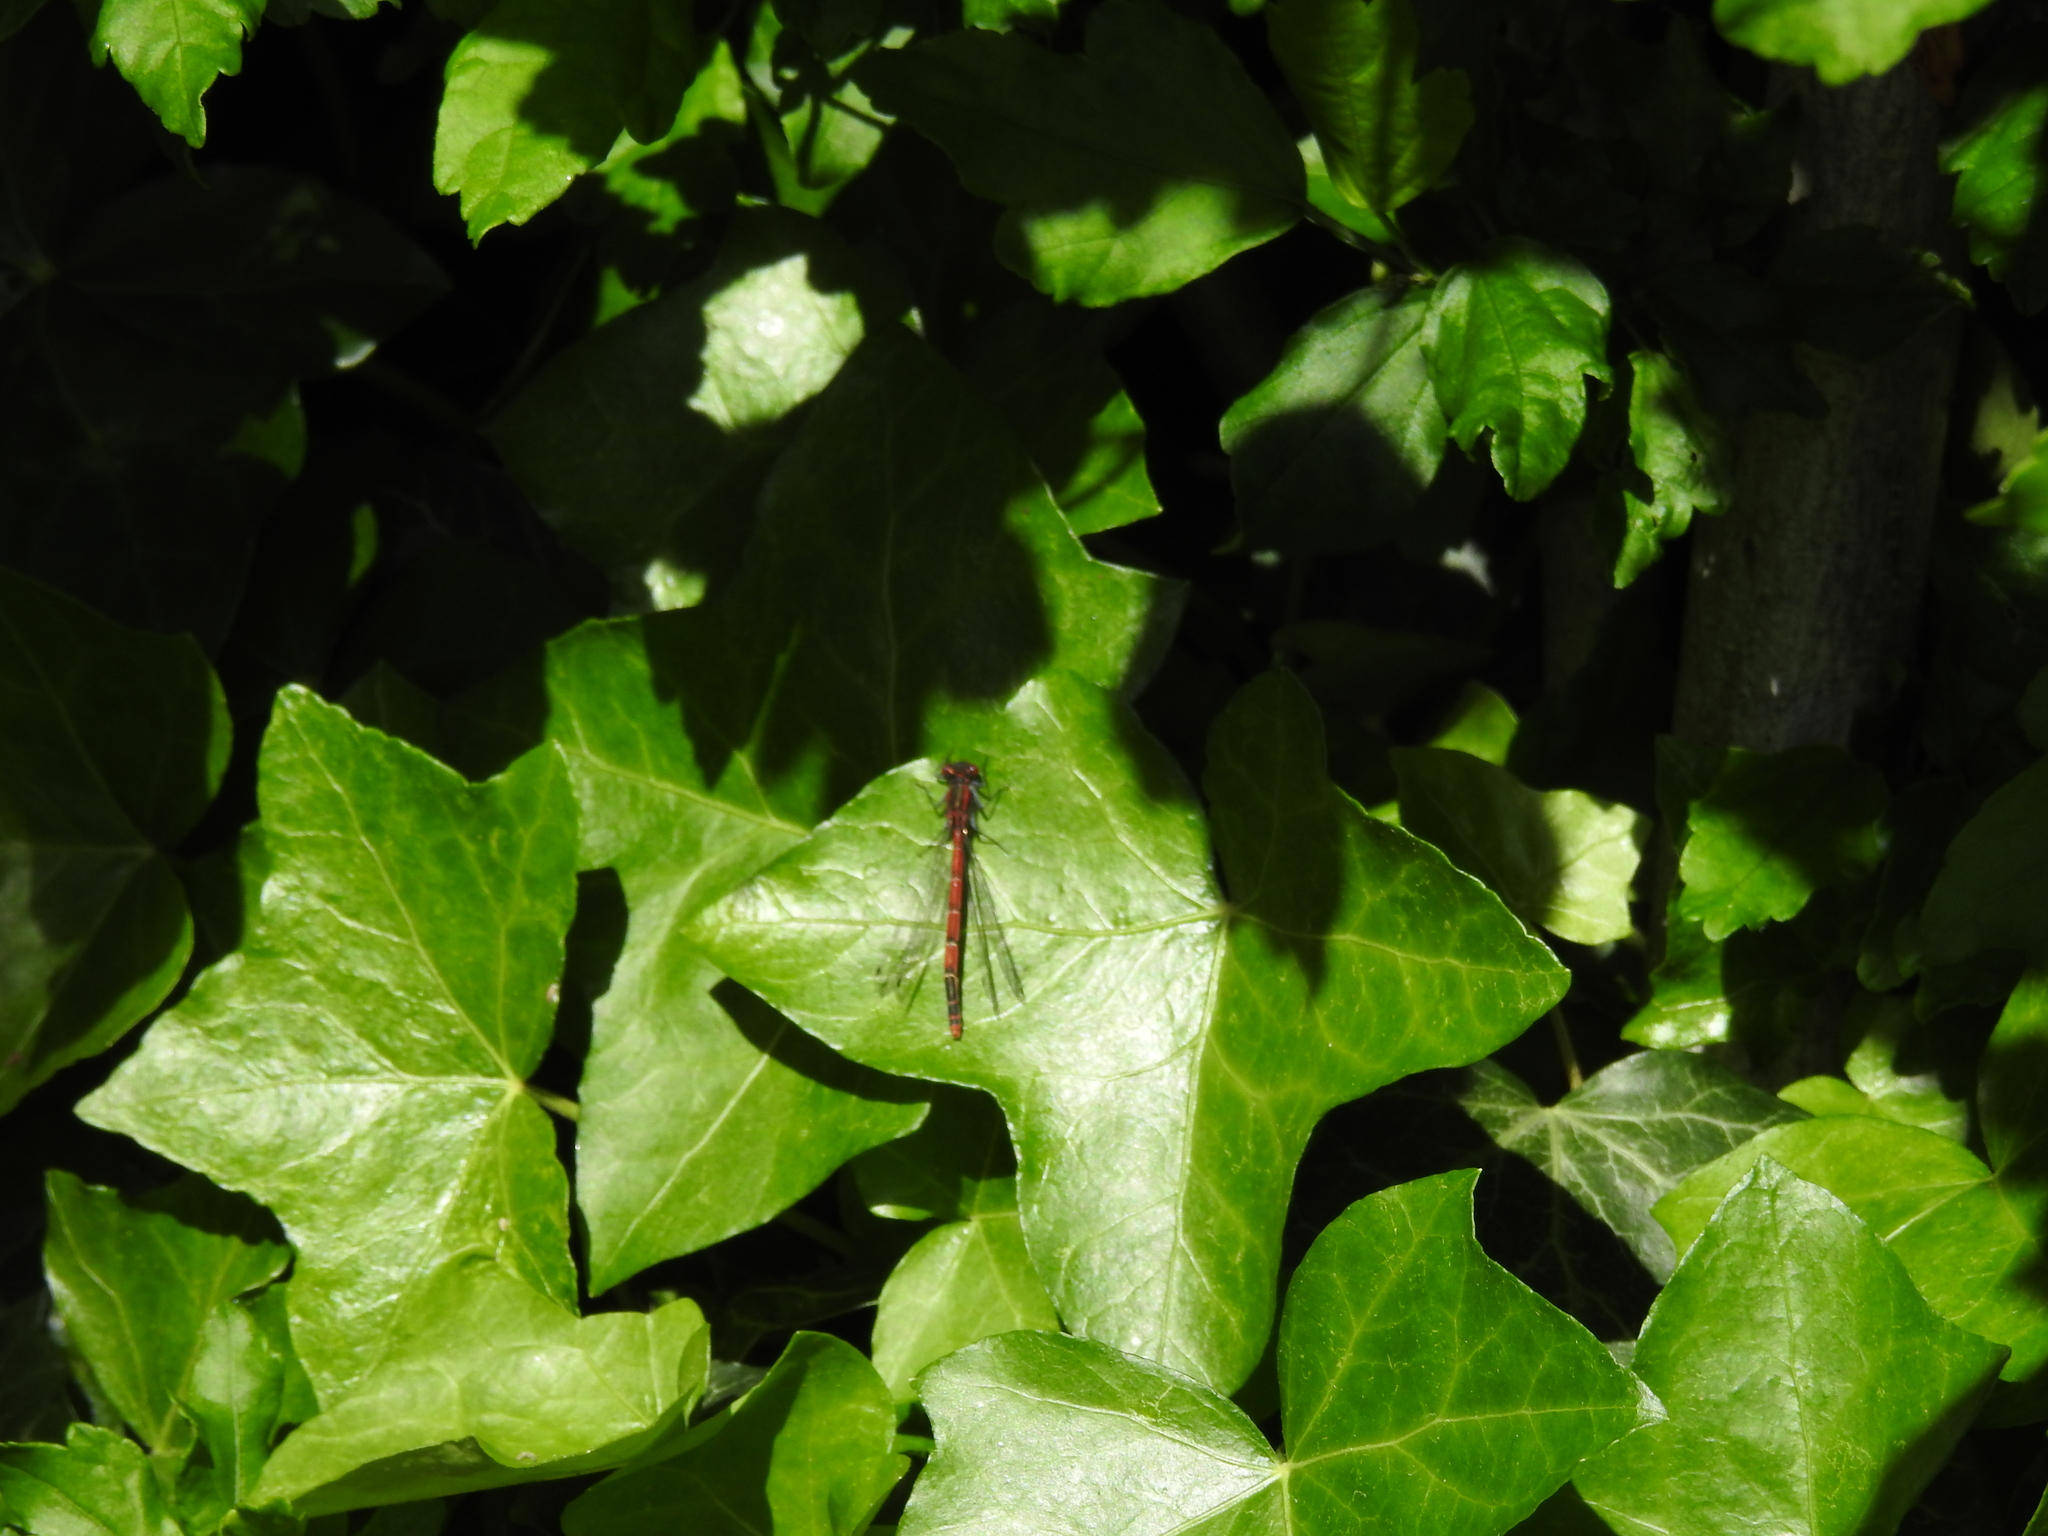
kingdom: Animalia
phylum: Arthropoda
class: Insecta
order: Odonata
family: Coenagrionidae
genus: Pyrrhosoma
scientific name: Pyrrhosoma nymphula
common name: Large red damsel
